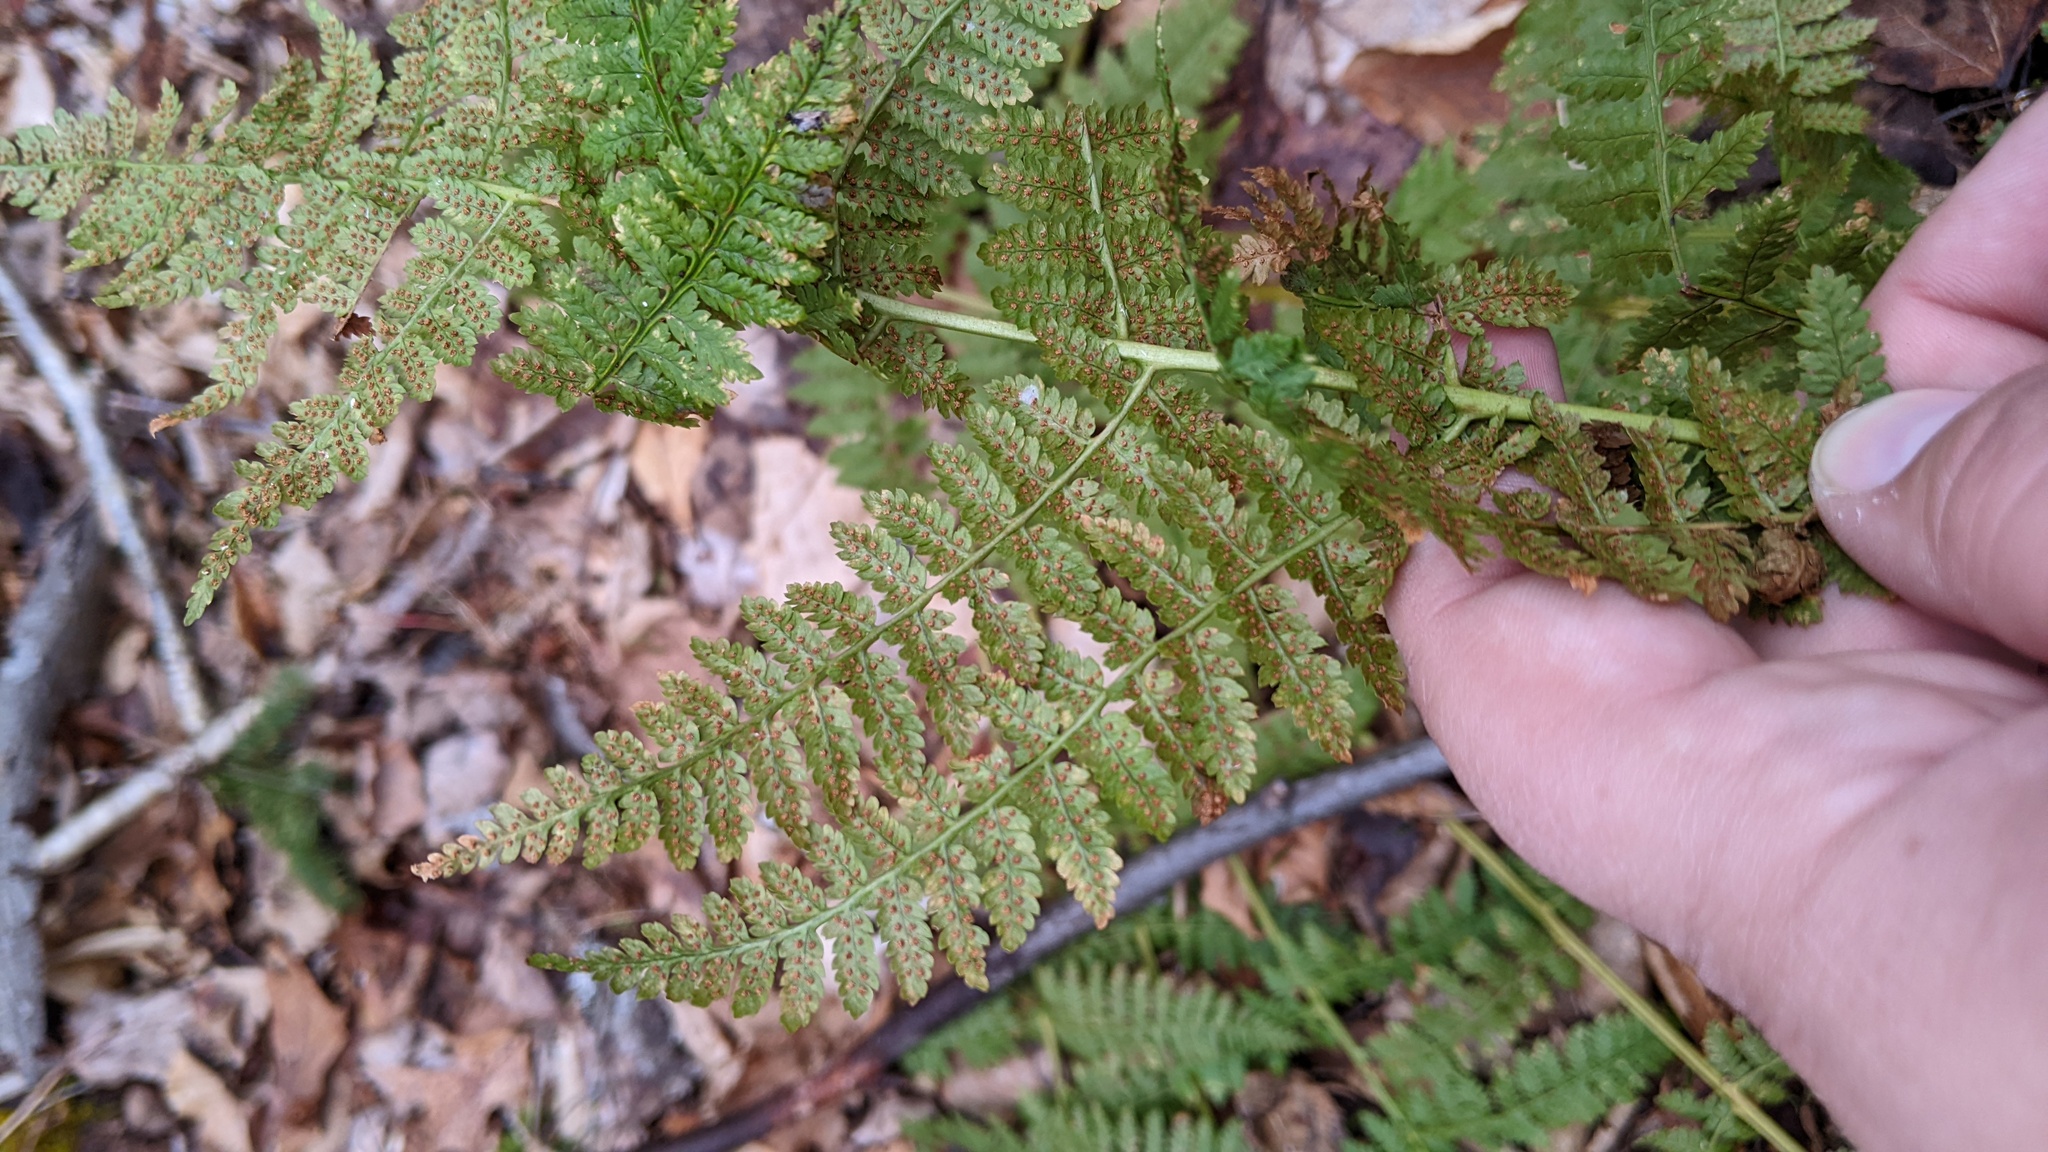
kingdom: Plantae
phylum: Tracheophyta
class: Polypodiopsida
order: Polypodiales
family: Dryopteridaceae
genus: Dryopteris
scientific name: Dryopteris intermedia
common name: Evergreen wood fern
